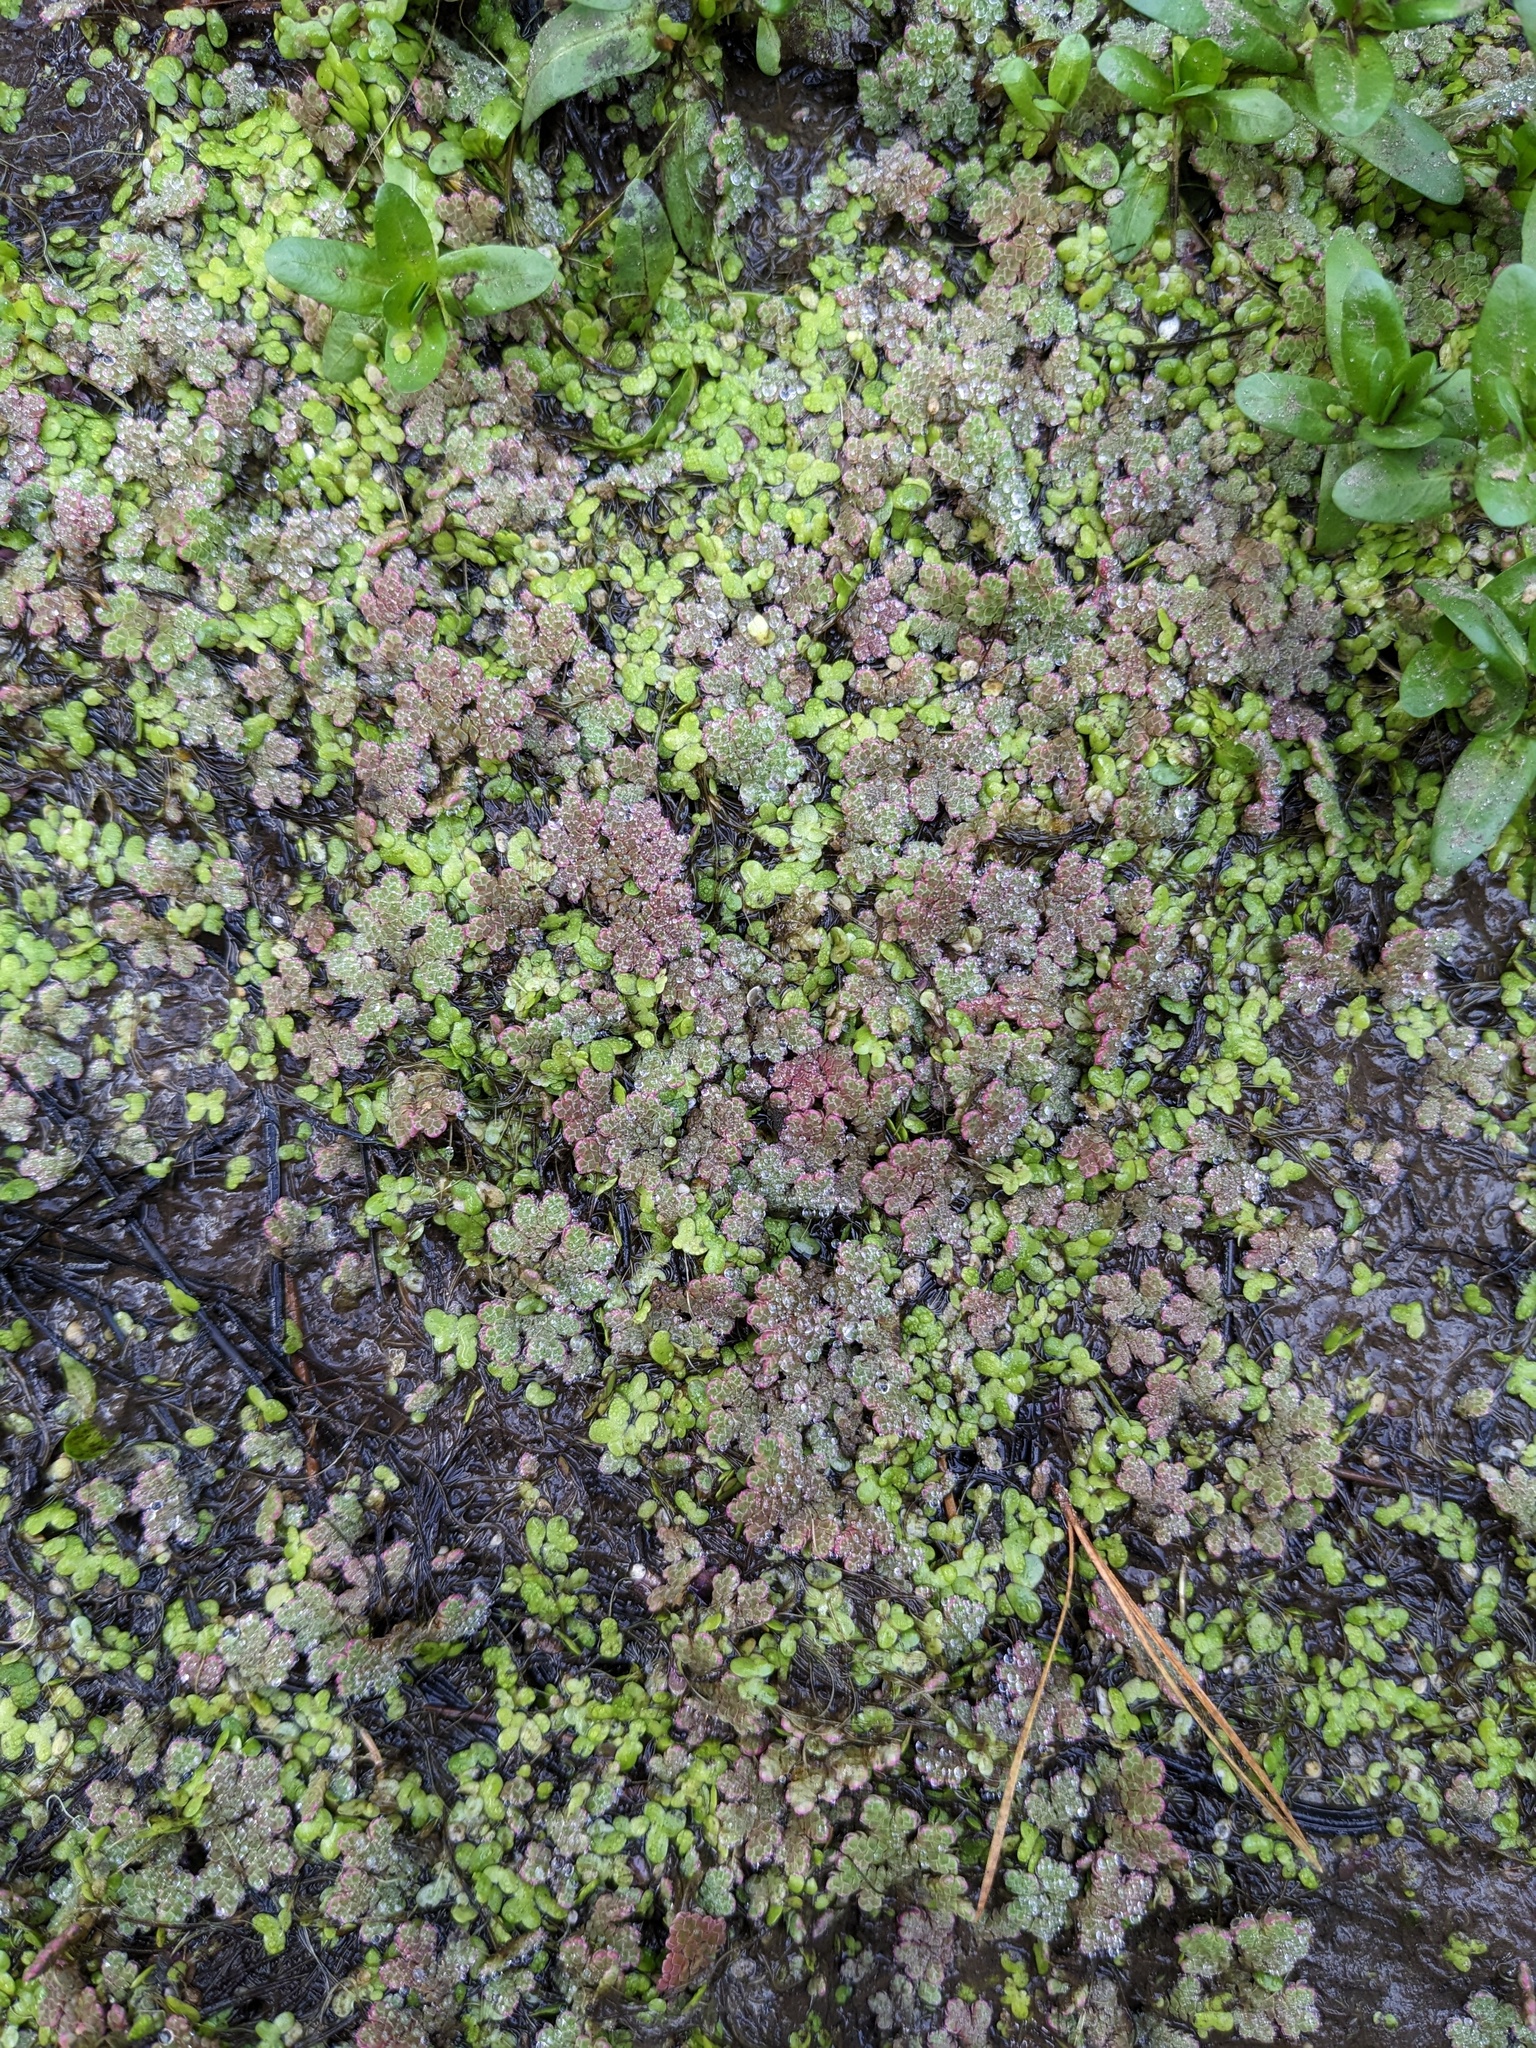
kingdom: Plantae
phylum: Tracheophyta
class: Polypodiopsida
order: Salviniales
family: Salviniaceae
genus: Azolla
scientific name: Azolla rubra
